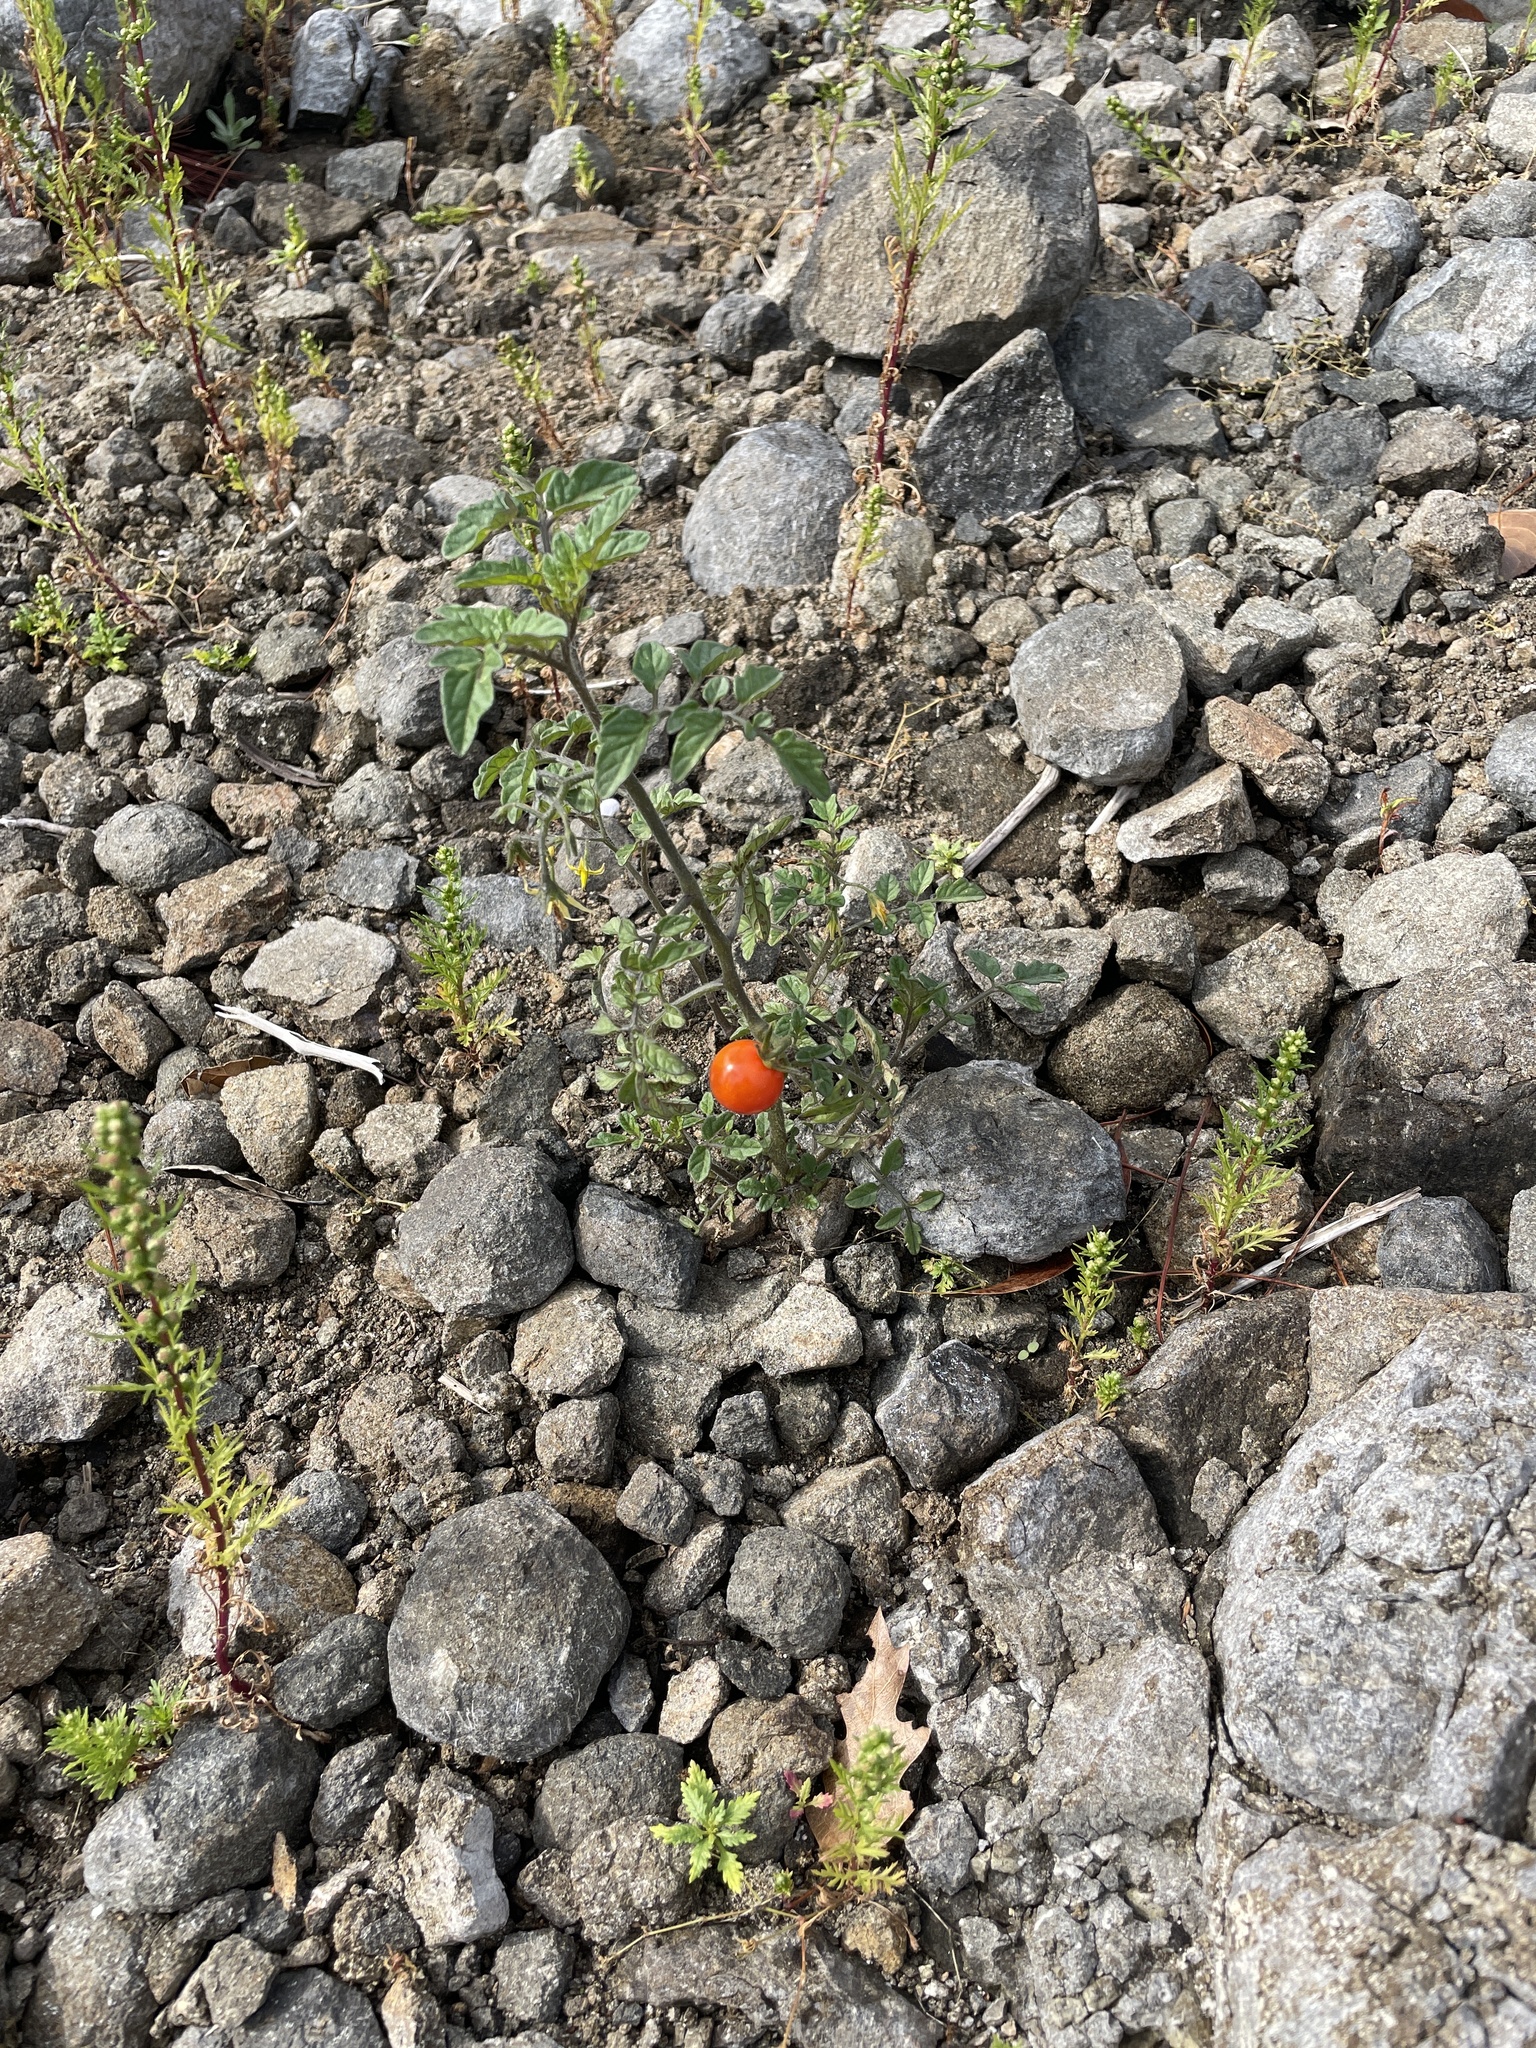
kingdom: Plantae
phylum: Tracheophyta
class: Magnoliopsida
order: Solanales
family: Solanaceae
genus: Solanum
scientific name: Solanum lycopersicum
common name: Garden tomato
